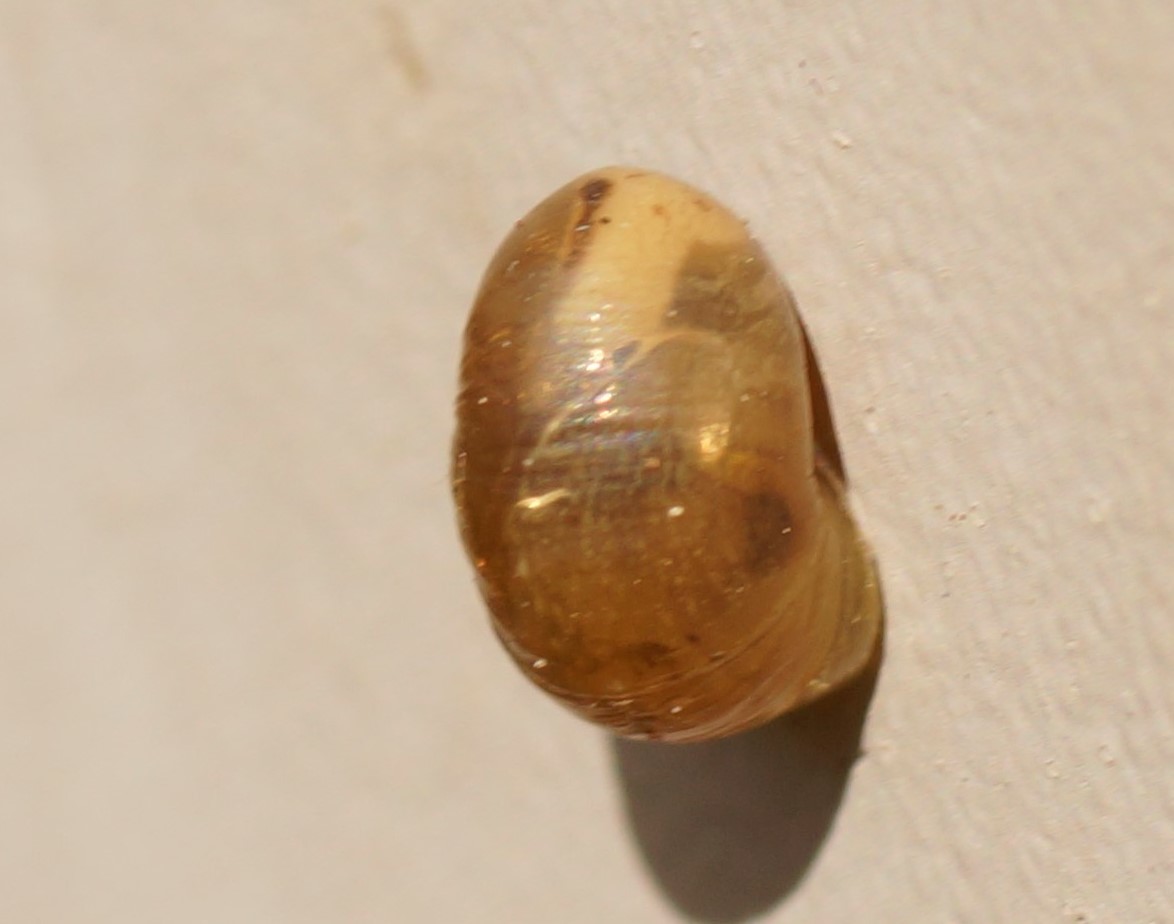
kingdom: Animalia
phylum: Mollusca
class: Gastropoda
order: Stylommatophora
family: Helicidae
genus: Cornu
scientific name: Cornu aspersum
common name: Brown garden snail
